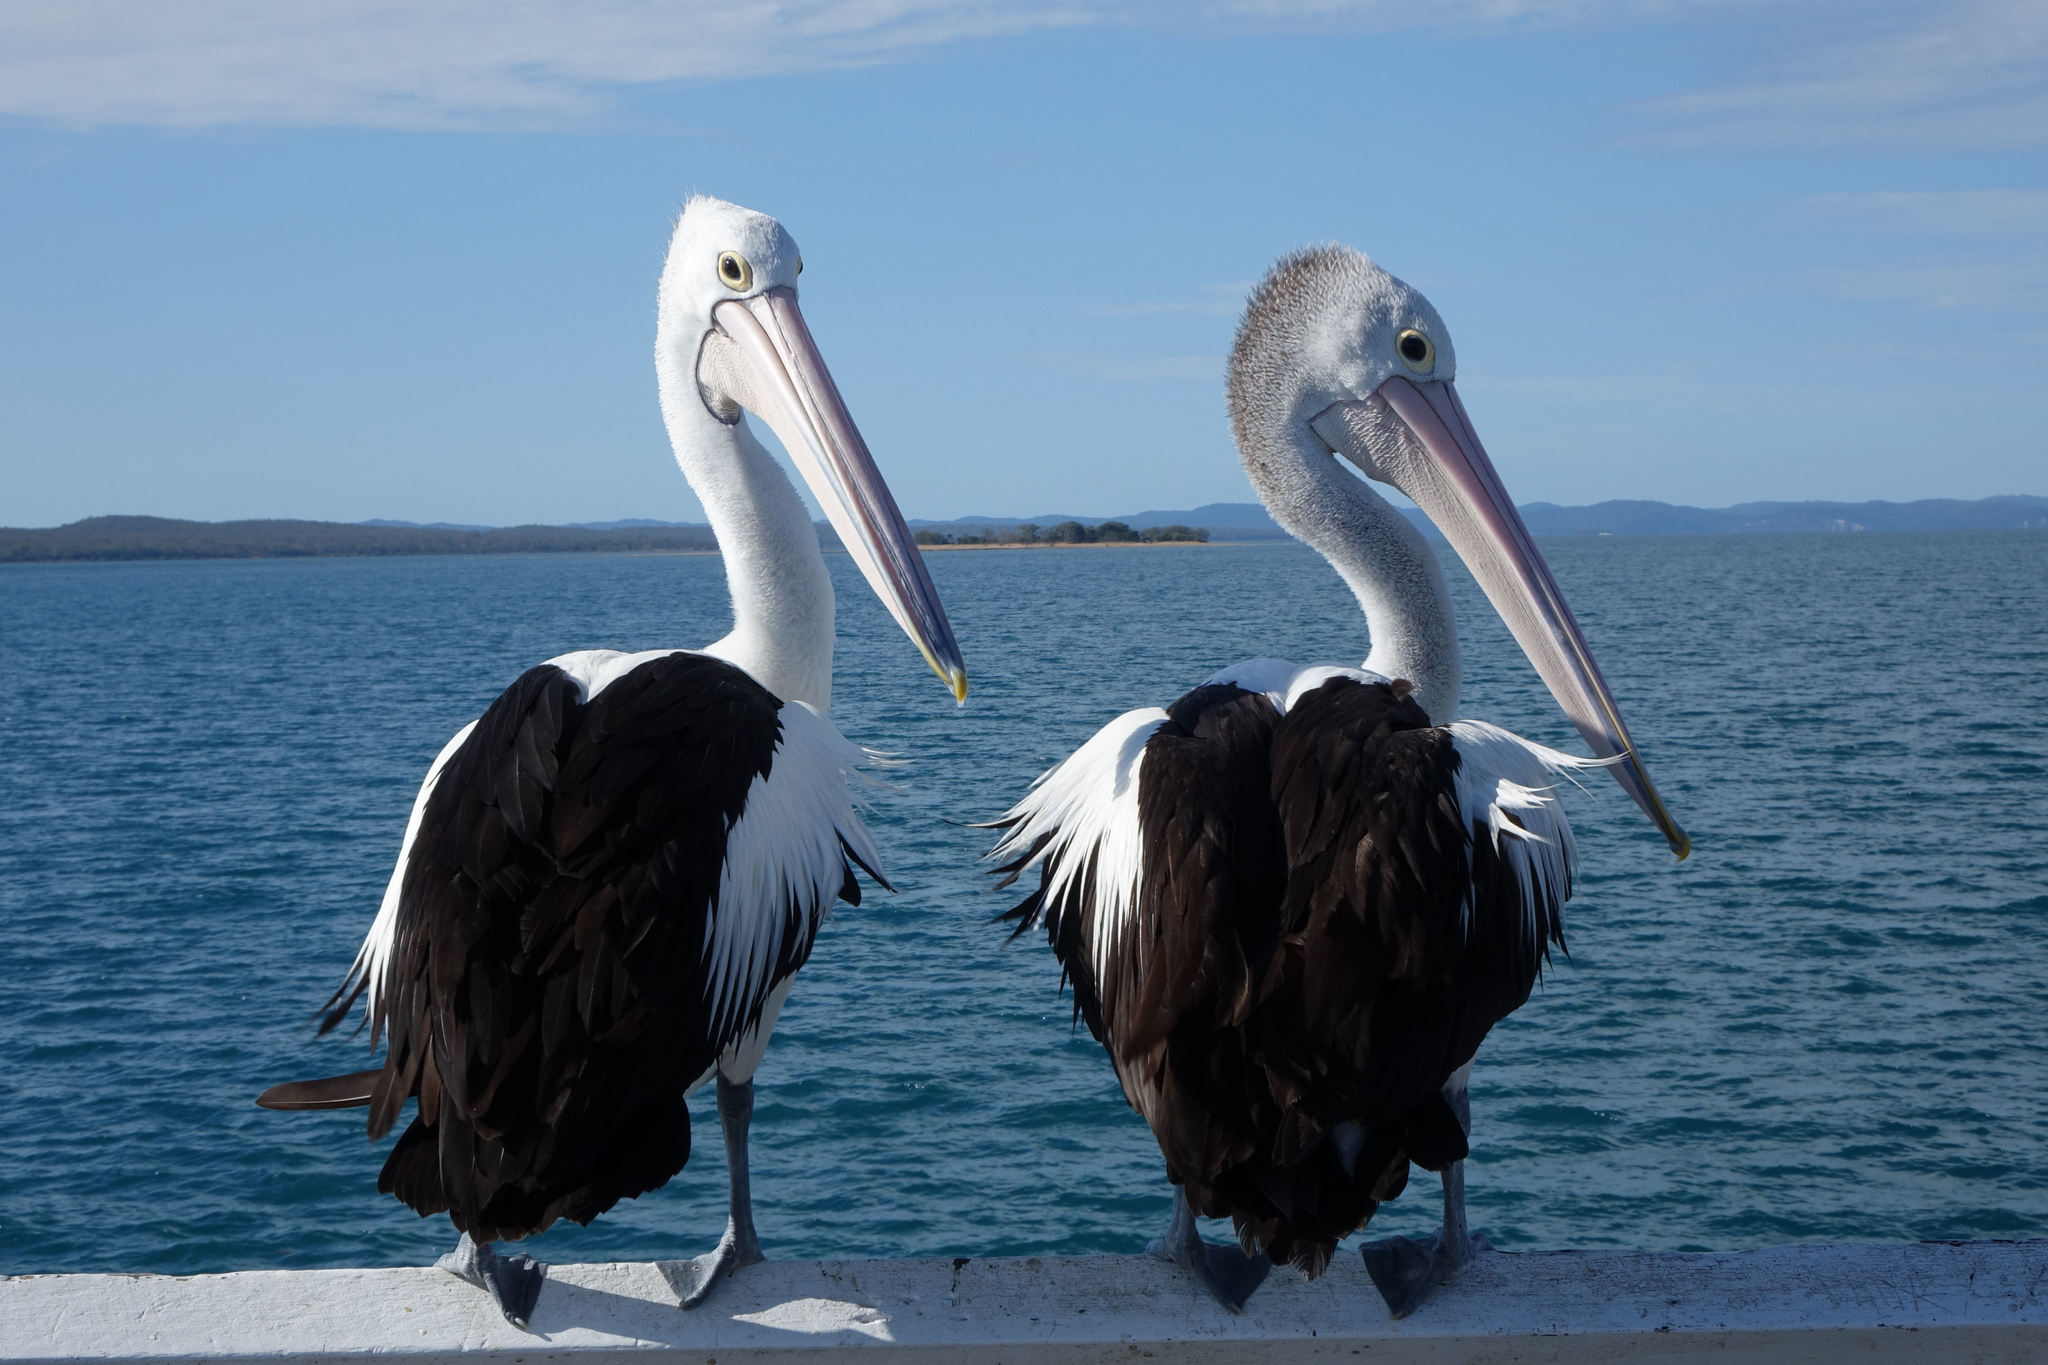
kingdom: Animalia
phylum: Chordata
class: Aves
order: Pelecaniformes
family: Pelecanidae
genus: Pelecanus
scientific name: Pelecanus conspicillatus
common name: Australian pelican
